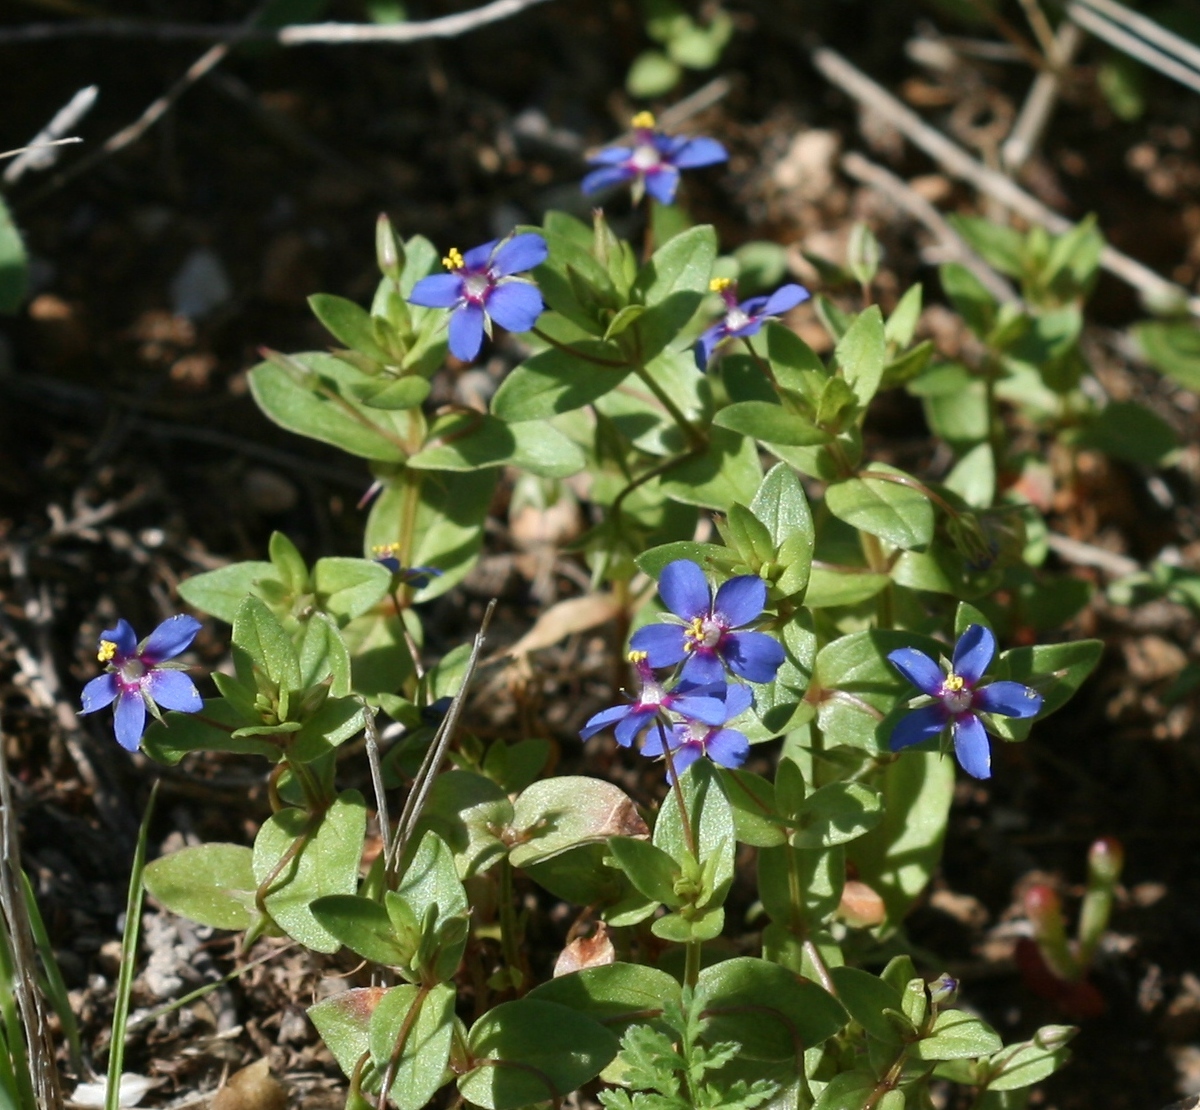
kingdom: Plantae
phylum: Tracheophyta
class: Magnoliopsida
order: Ericales
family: Primulaceae
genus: Lysimachia
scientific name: Lysimachia loeflingii
